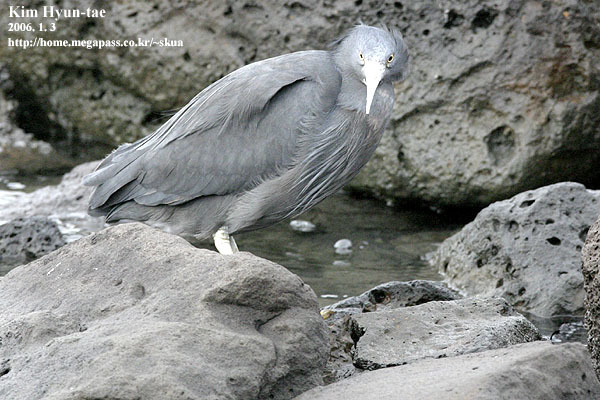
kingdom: Animalia
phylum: Chordata
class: Aves
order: Pelecaniformes
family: Ardeidae
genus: Egretta
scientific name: Egretta sacra
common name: Pacific reef heron
